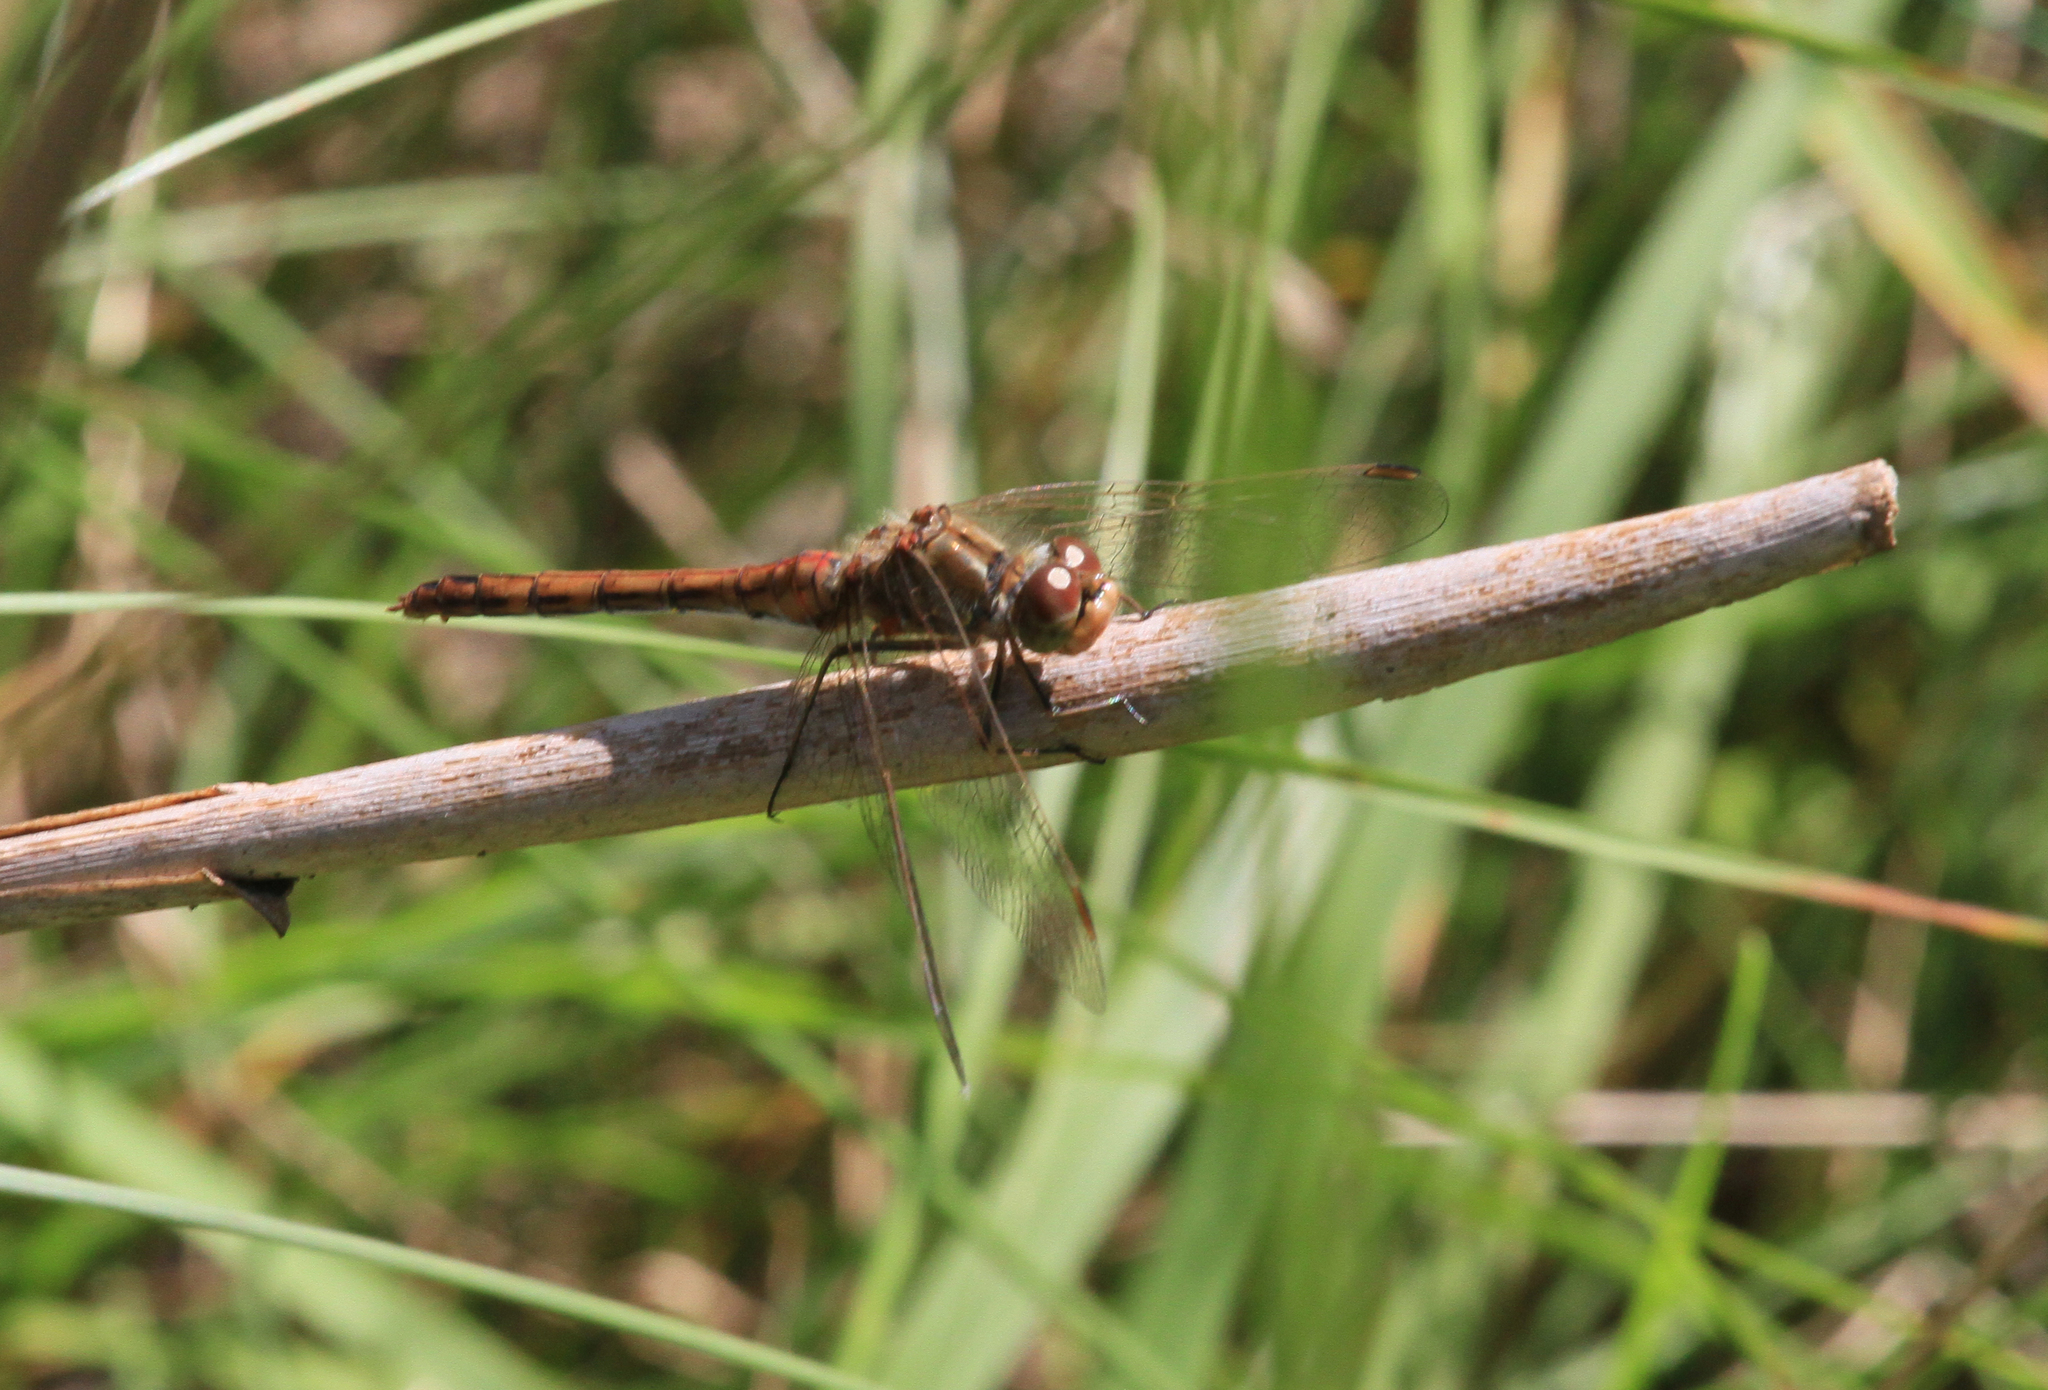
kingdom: Animalia
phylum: Arthropoda
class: Insecta
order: Odonata
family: Libellulidae
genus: Sympetrum
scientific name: Sympetrum vulgatum
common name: Vagrant darter
